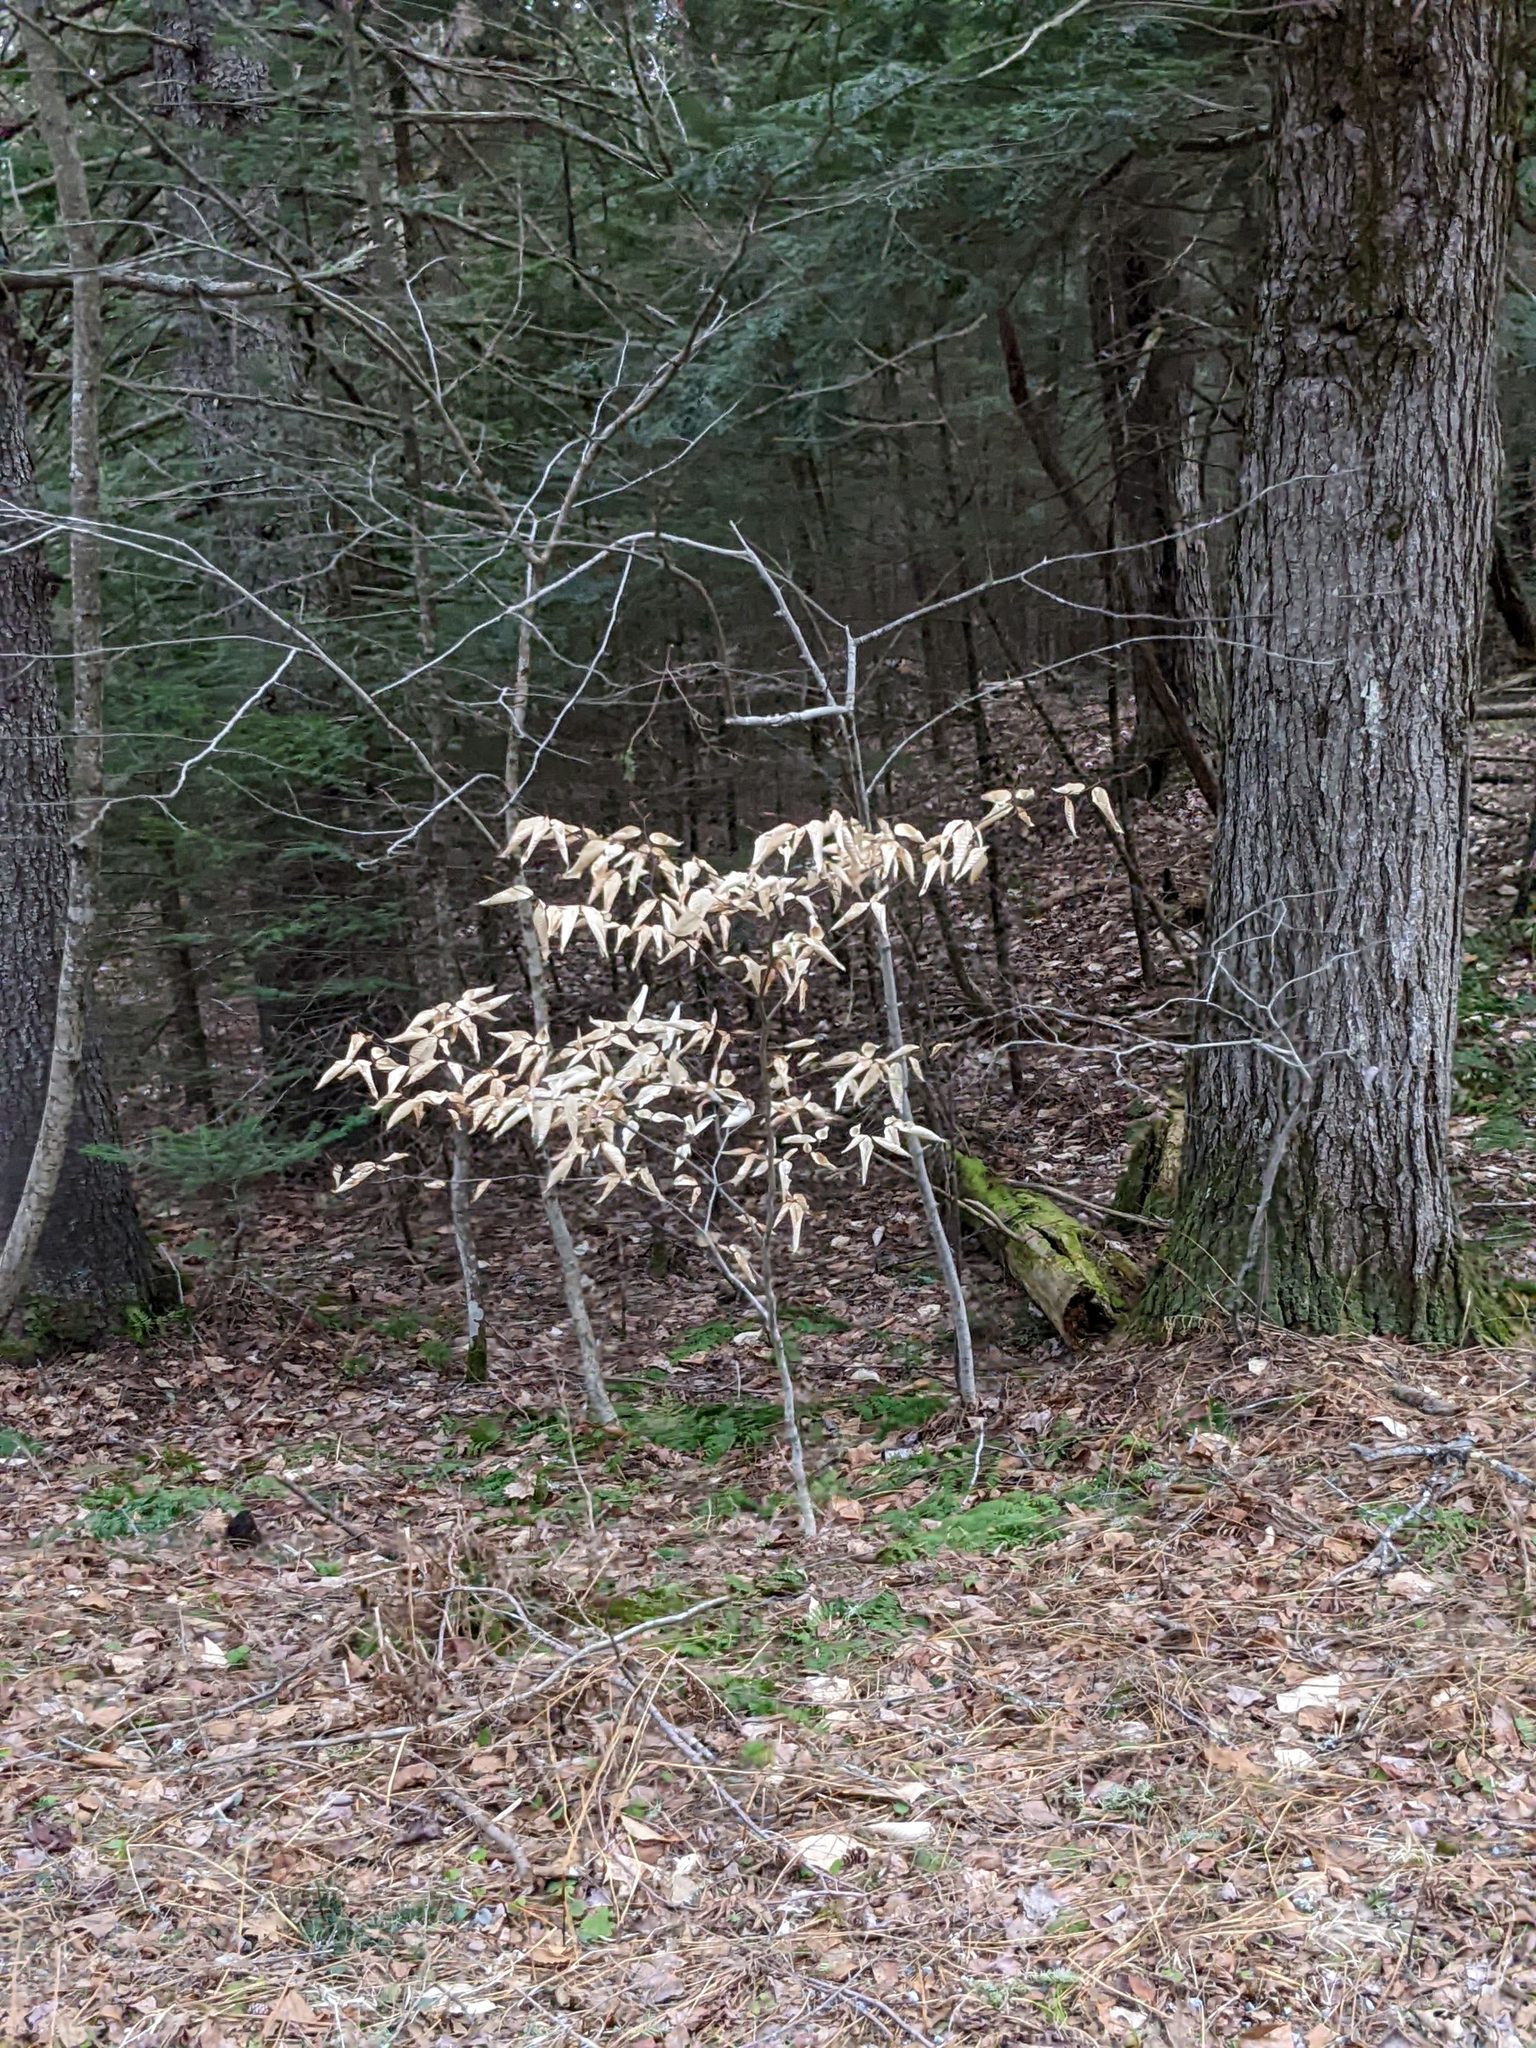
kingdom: Plantae
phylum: Tracheophyta
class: Magnoliopsida
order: Fagales
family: Fagaceae
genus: Fagus
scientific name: Fagus grandifolia
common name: American beech
